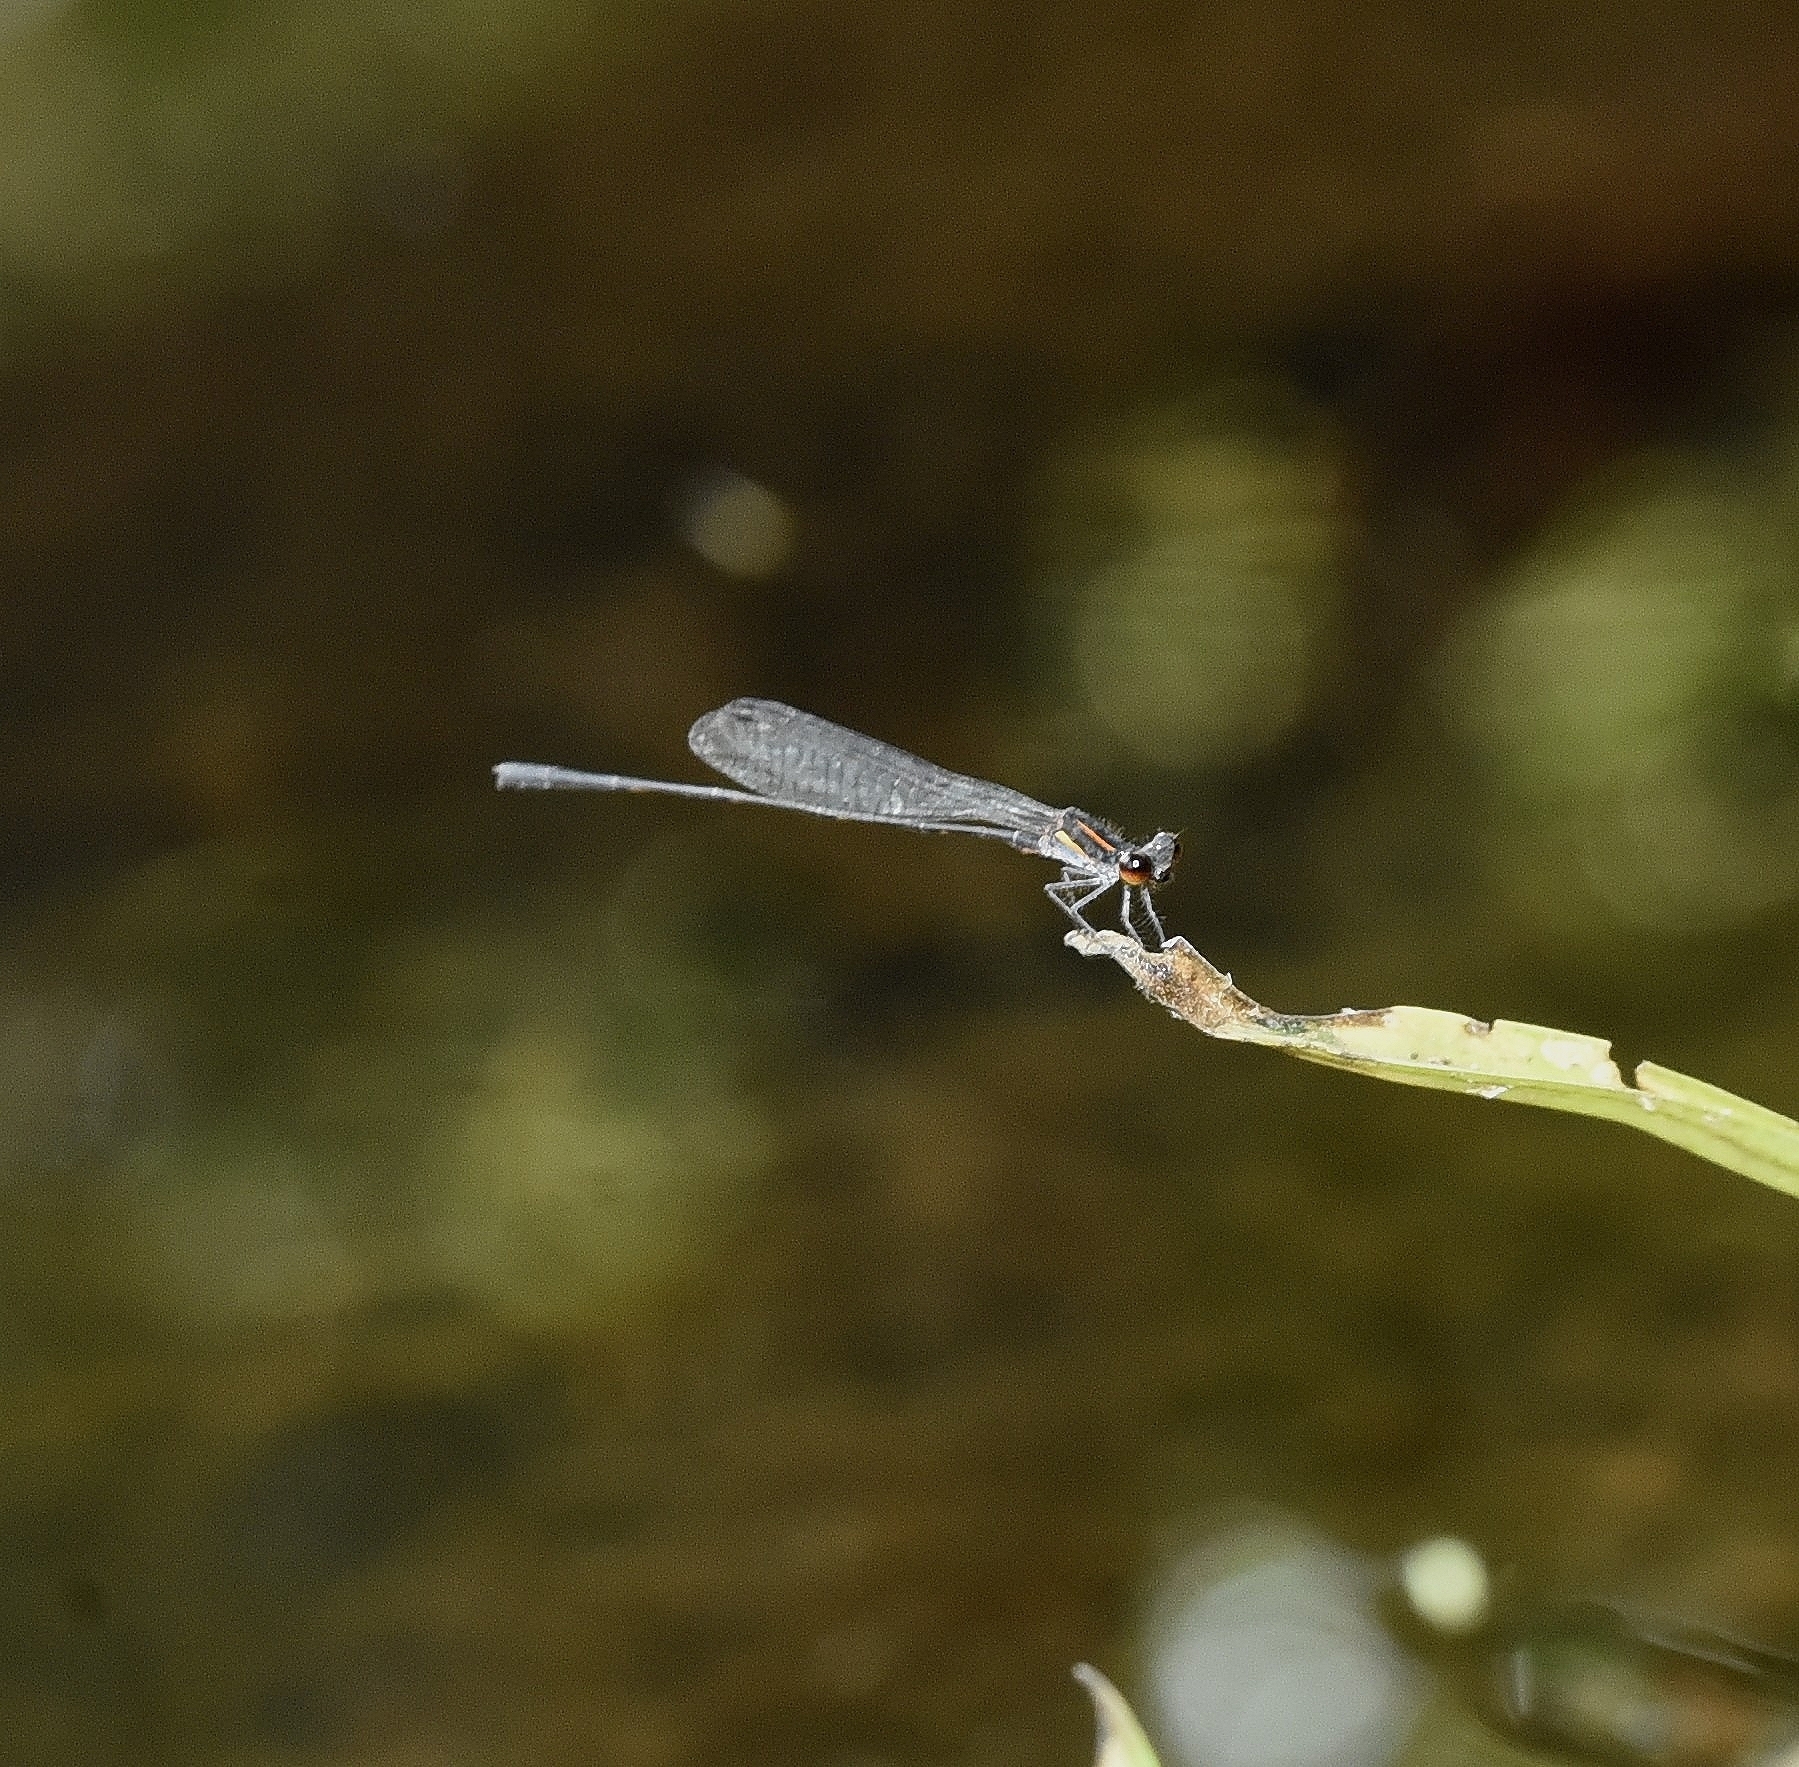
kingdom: Animalia
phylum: Arthropoda
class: Insecta
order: Odonata
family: Platycnemididae
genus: Prodasineura
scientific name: Prodasineura verticalis
